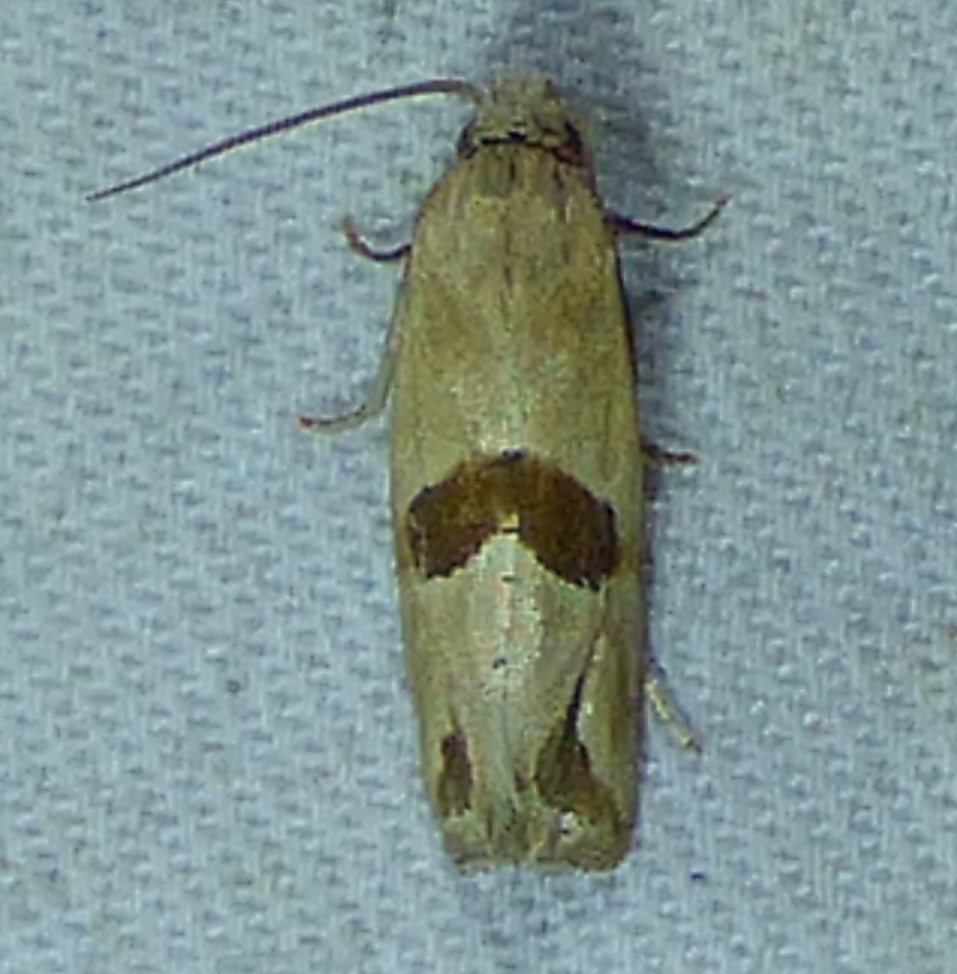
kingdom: Animalia
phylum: Arthropoda
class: Insecta
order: Lepidoptera
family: Tortricidae
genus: Eugnosta
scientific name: Eugnosta sartana
